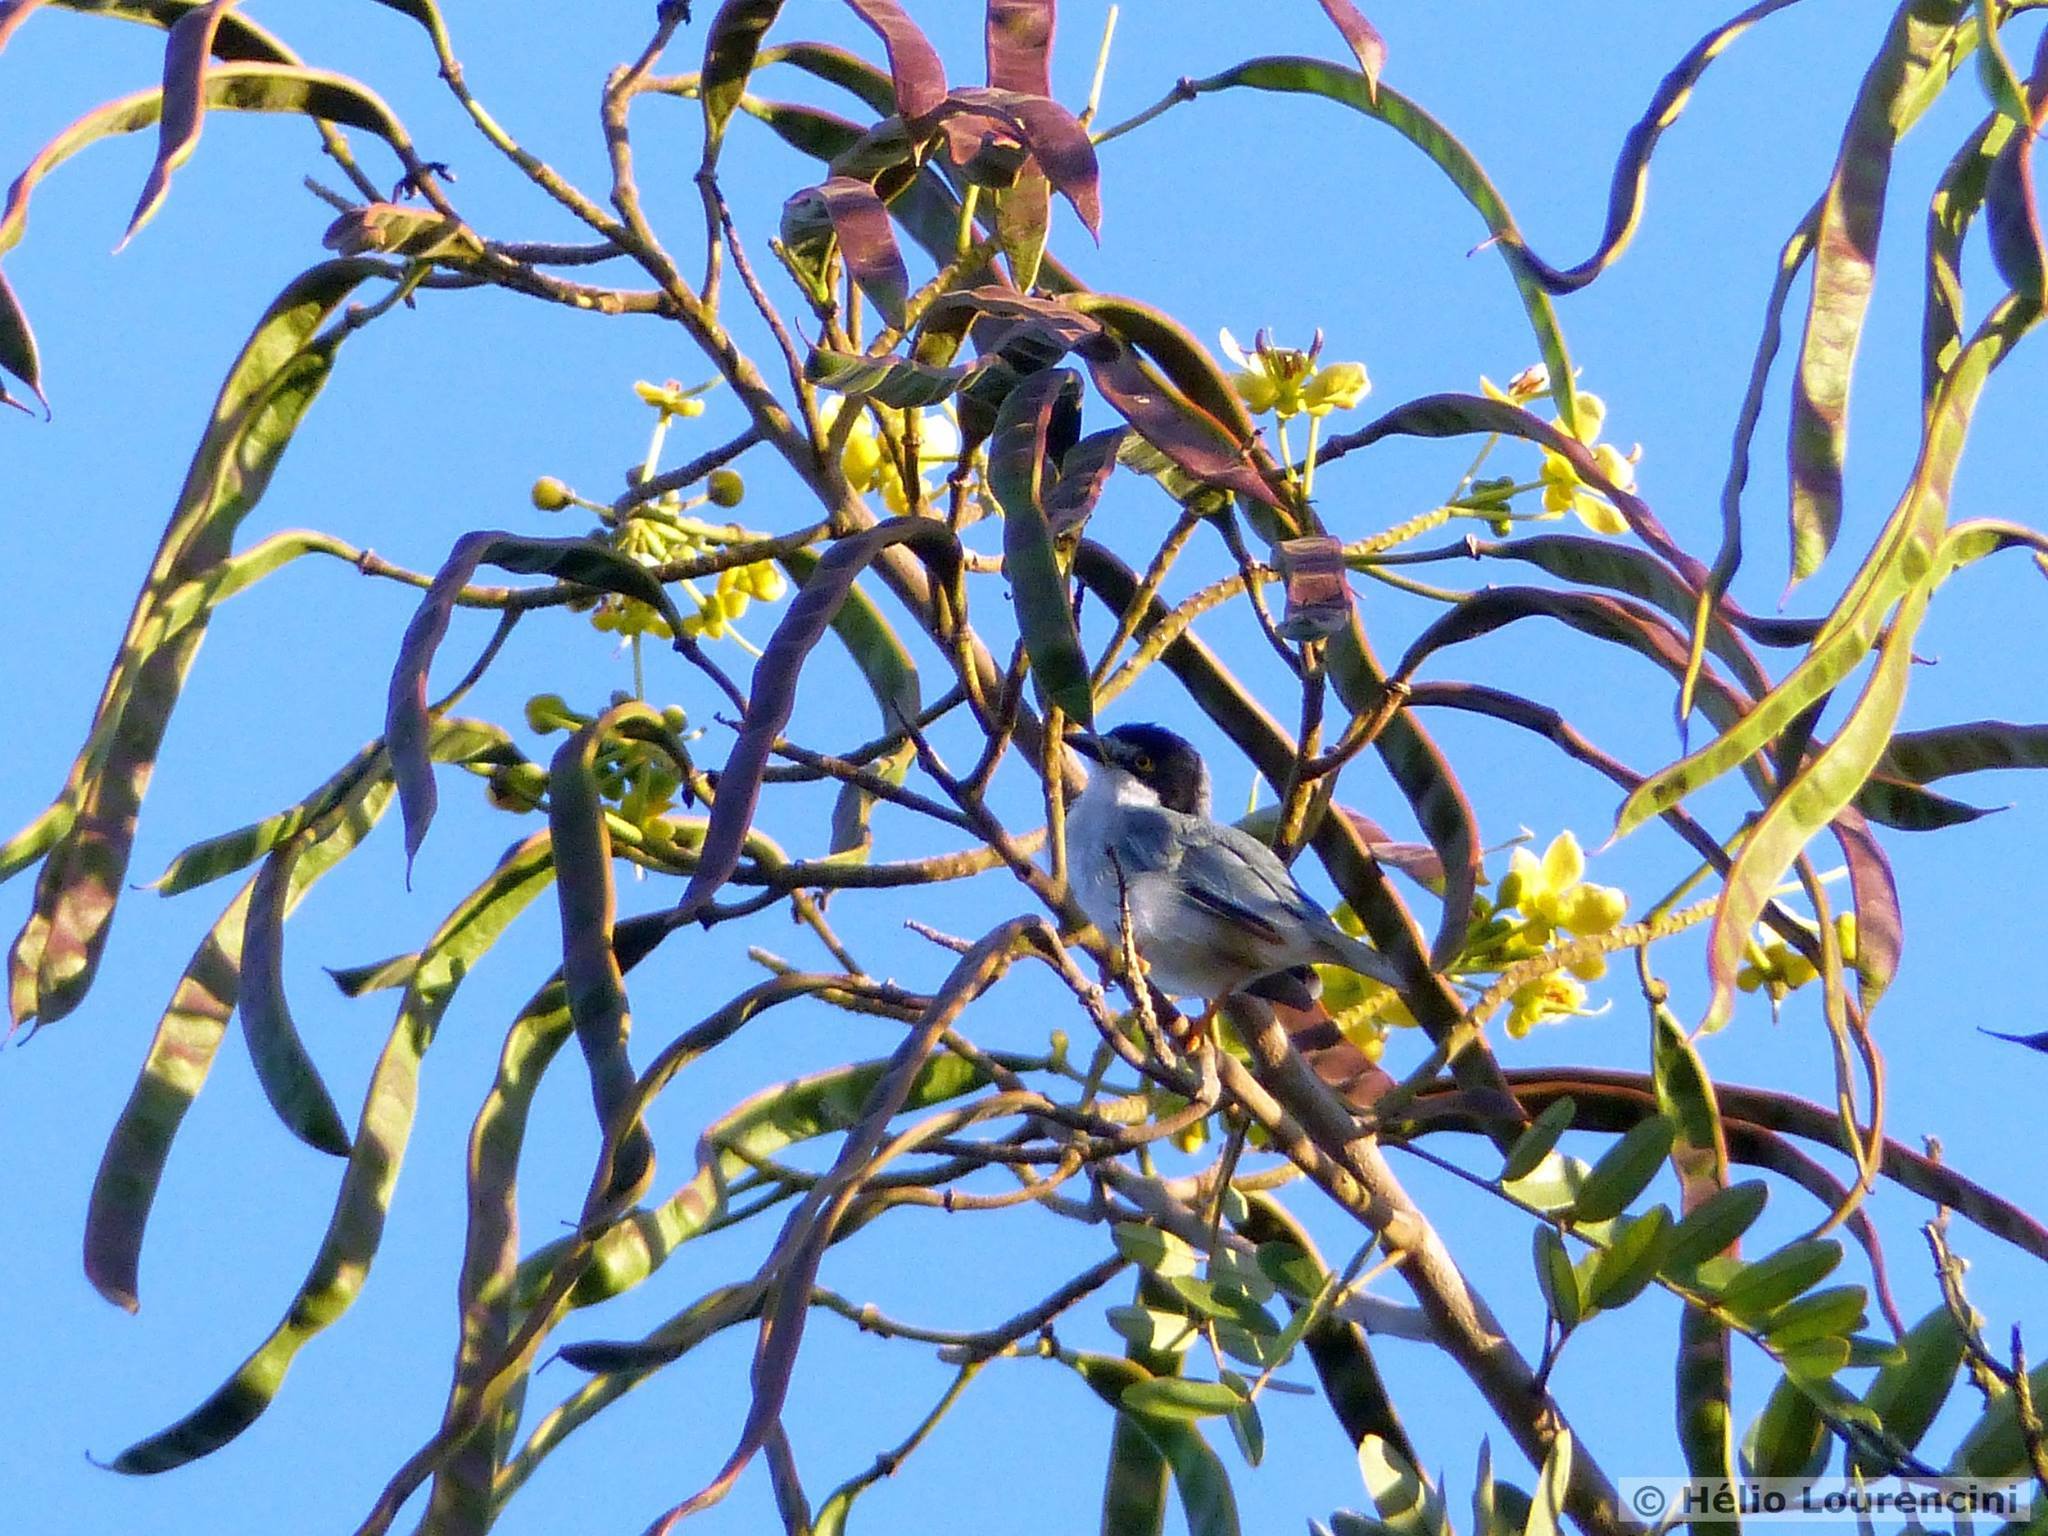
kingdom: Animalia
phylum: Chordata
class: Aves
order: Passeriformes
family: Thraupidae
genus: Nemosia
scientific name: Nemosia pileata
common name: Hooded tanager
